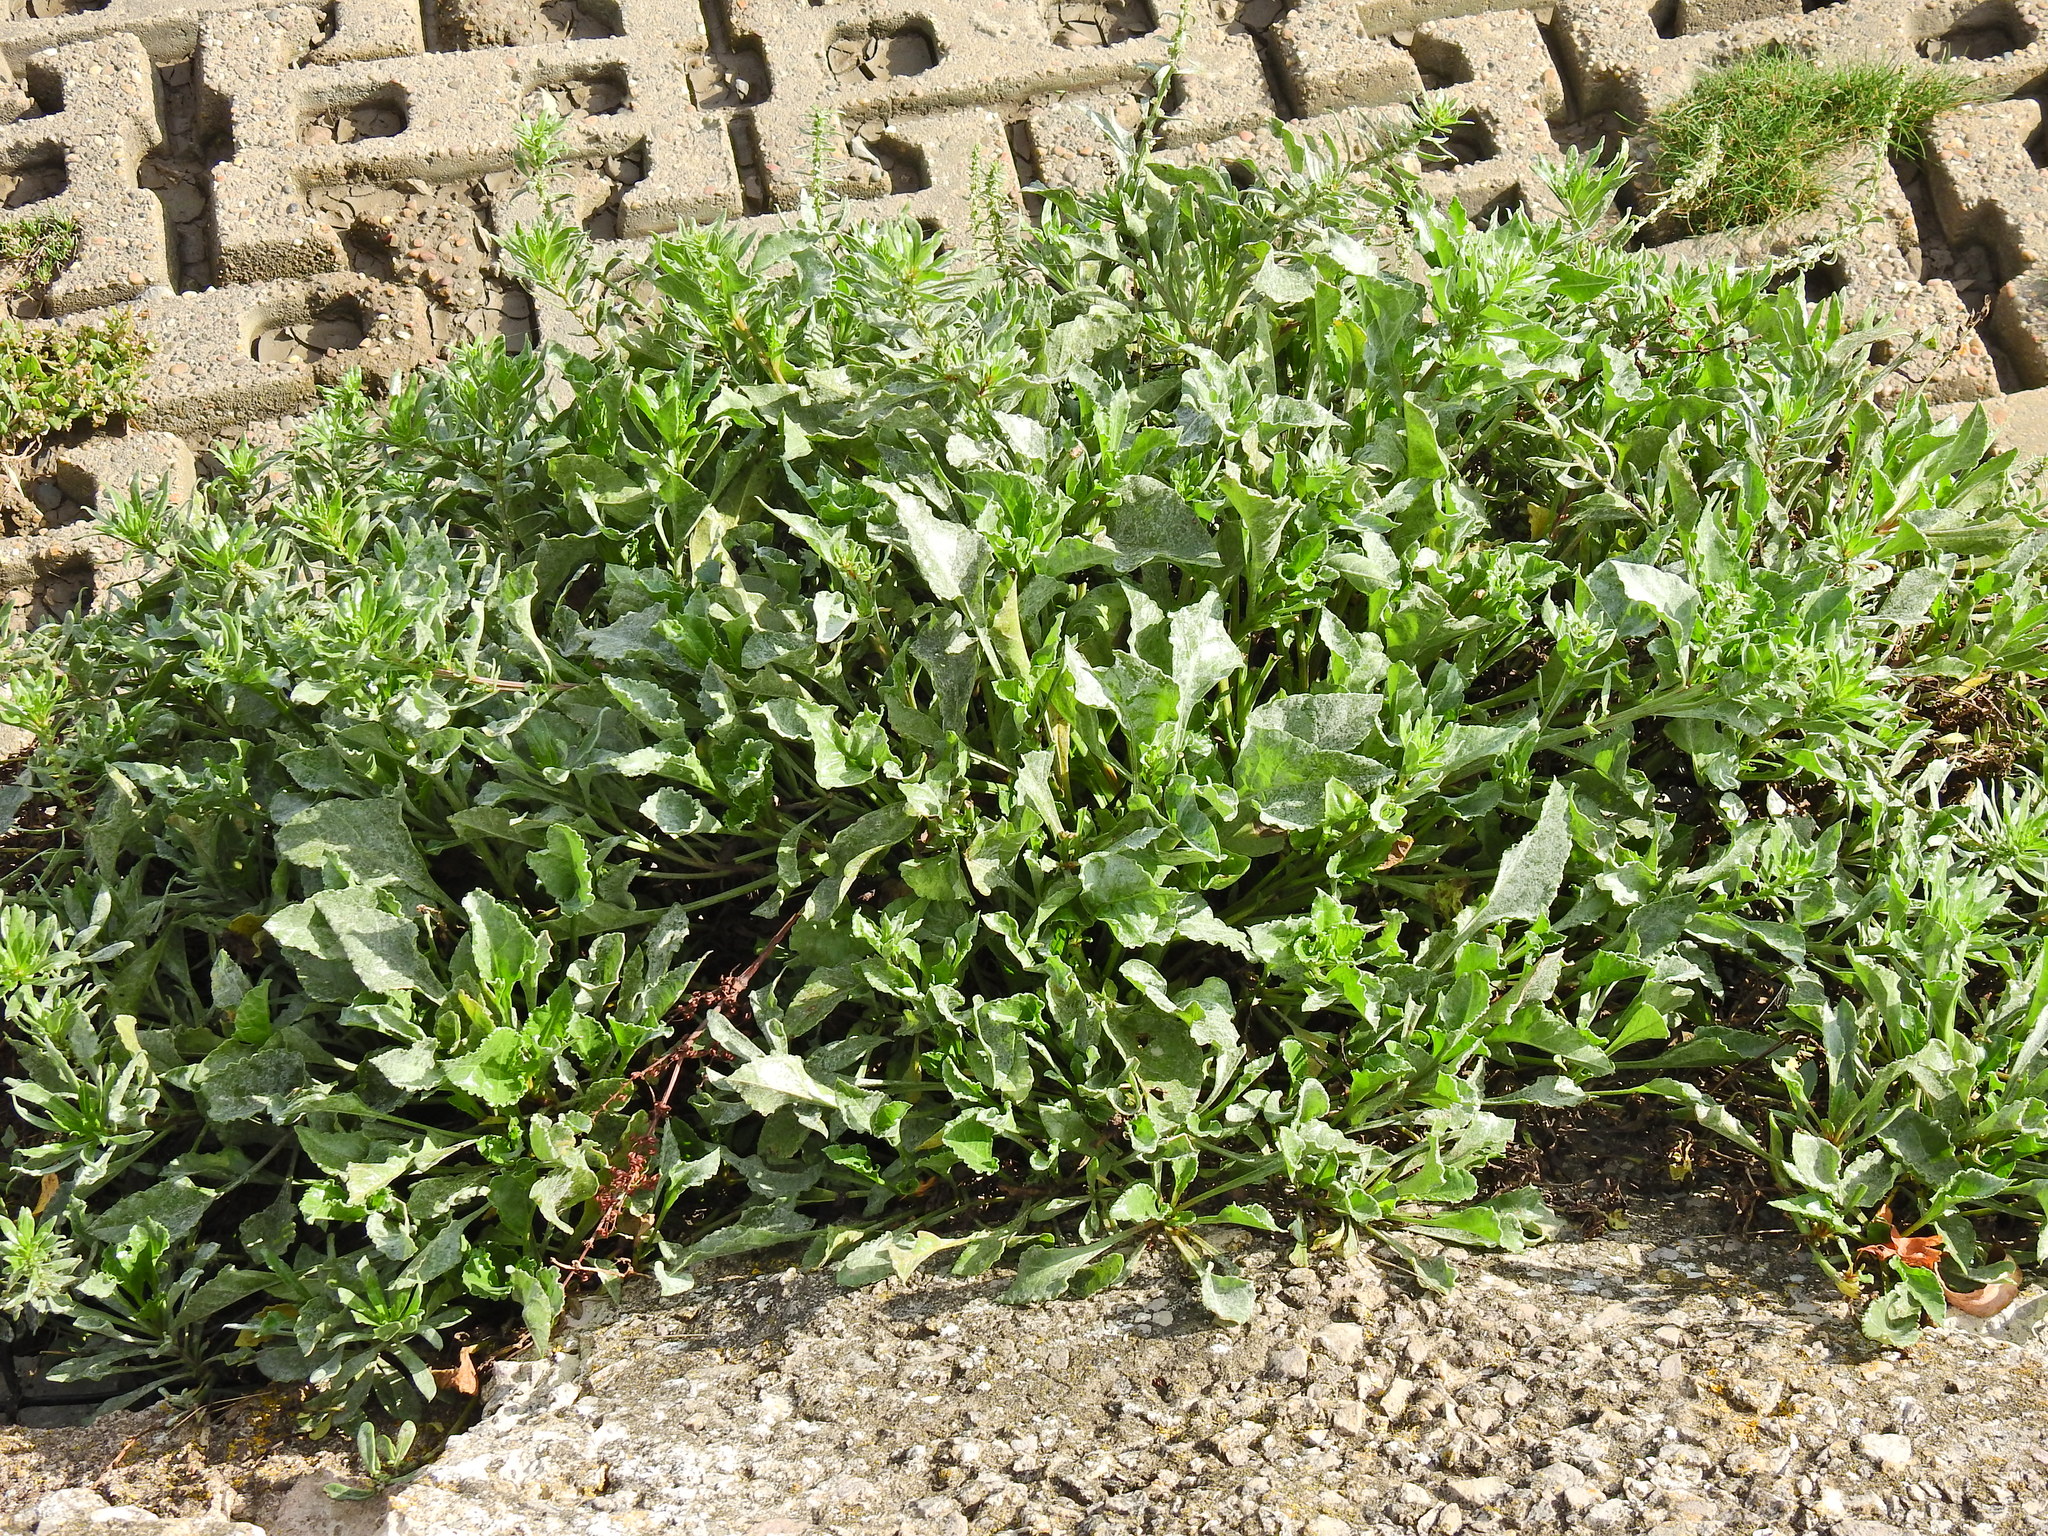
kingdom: Plantae
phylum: Tracheophyta
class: Magnoliopsida
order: Caryophyllales
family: Amaranthaceae
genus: Beta
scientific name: Beta vulgaris
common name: Beet
